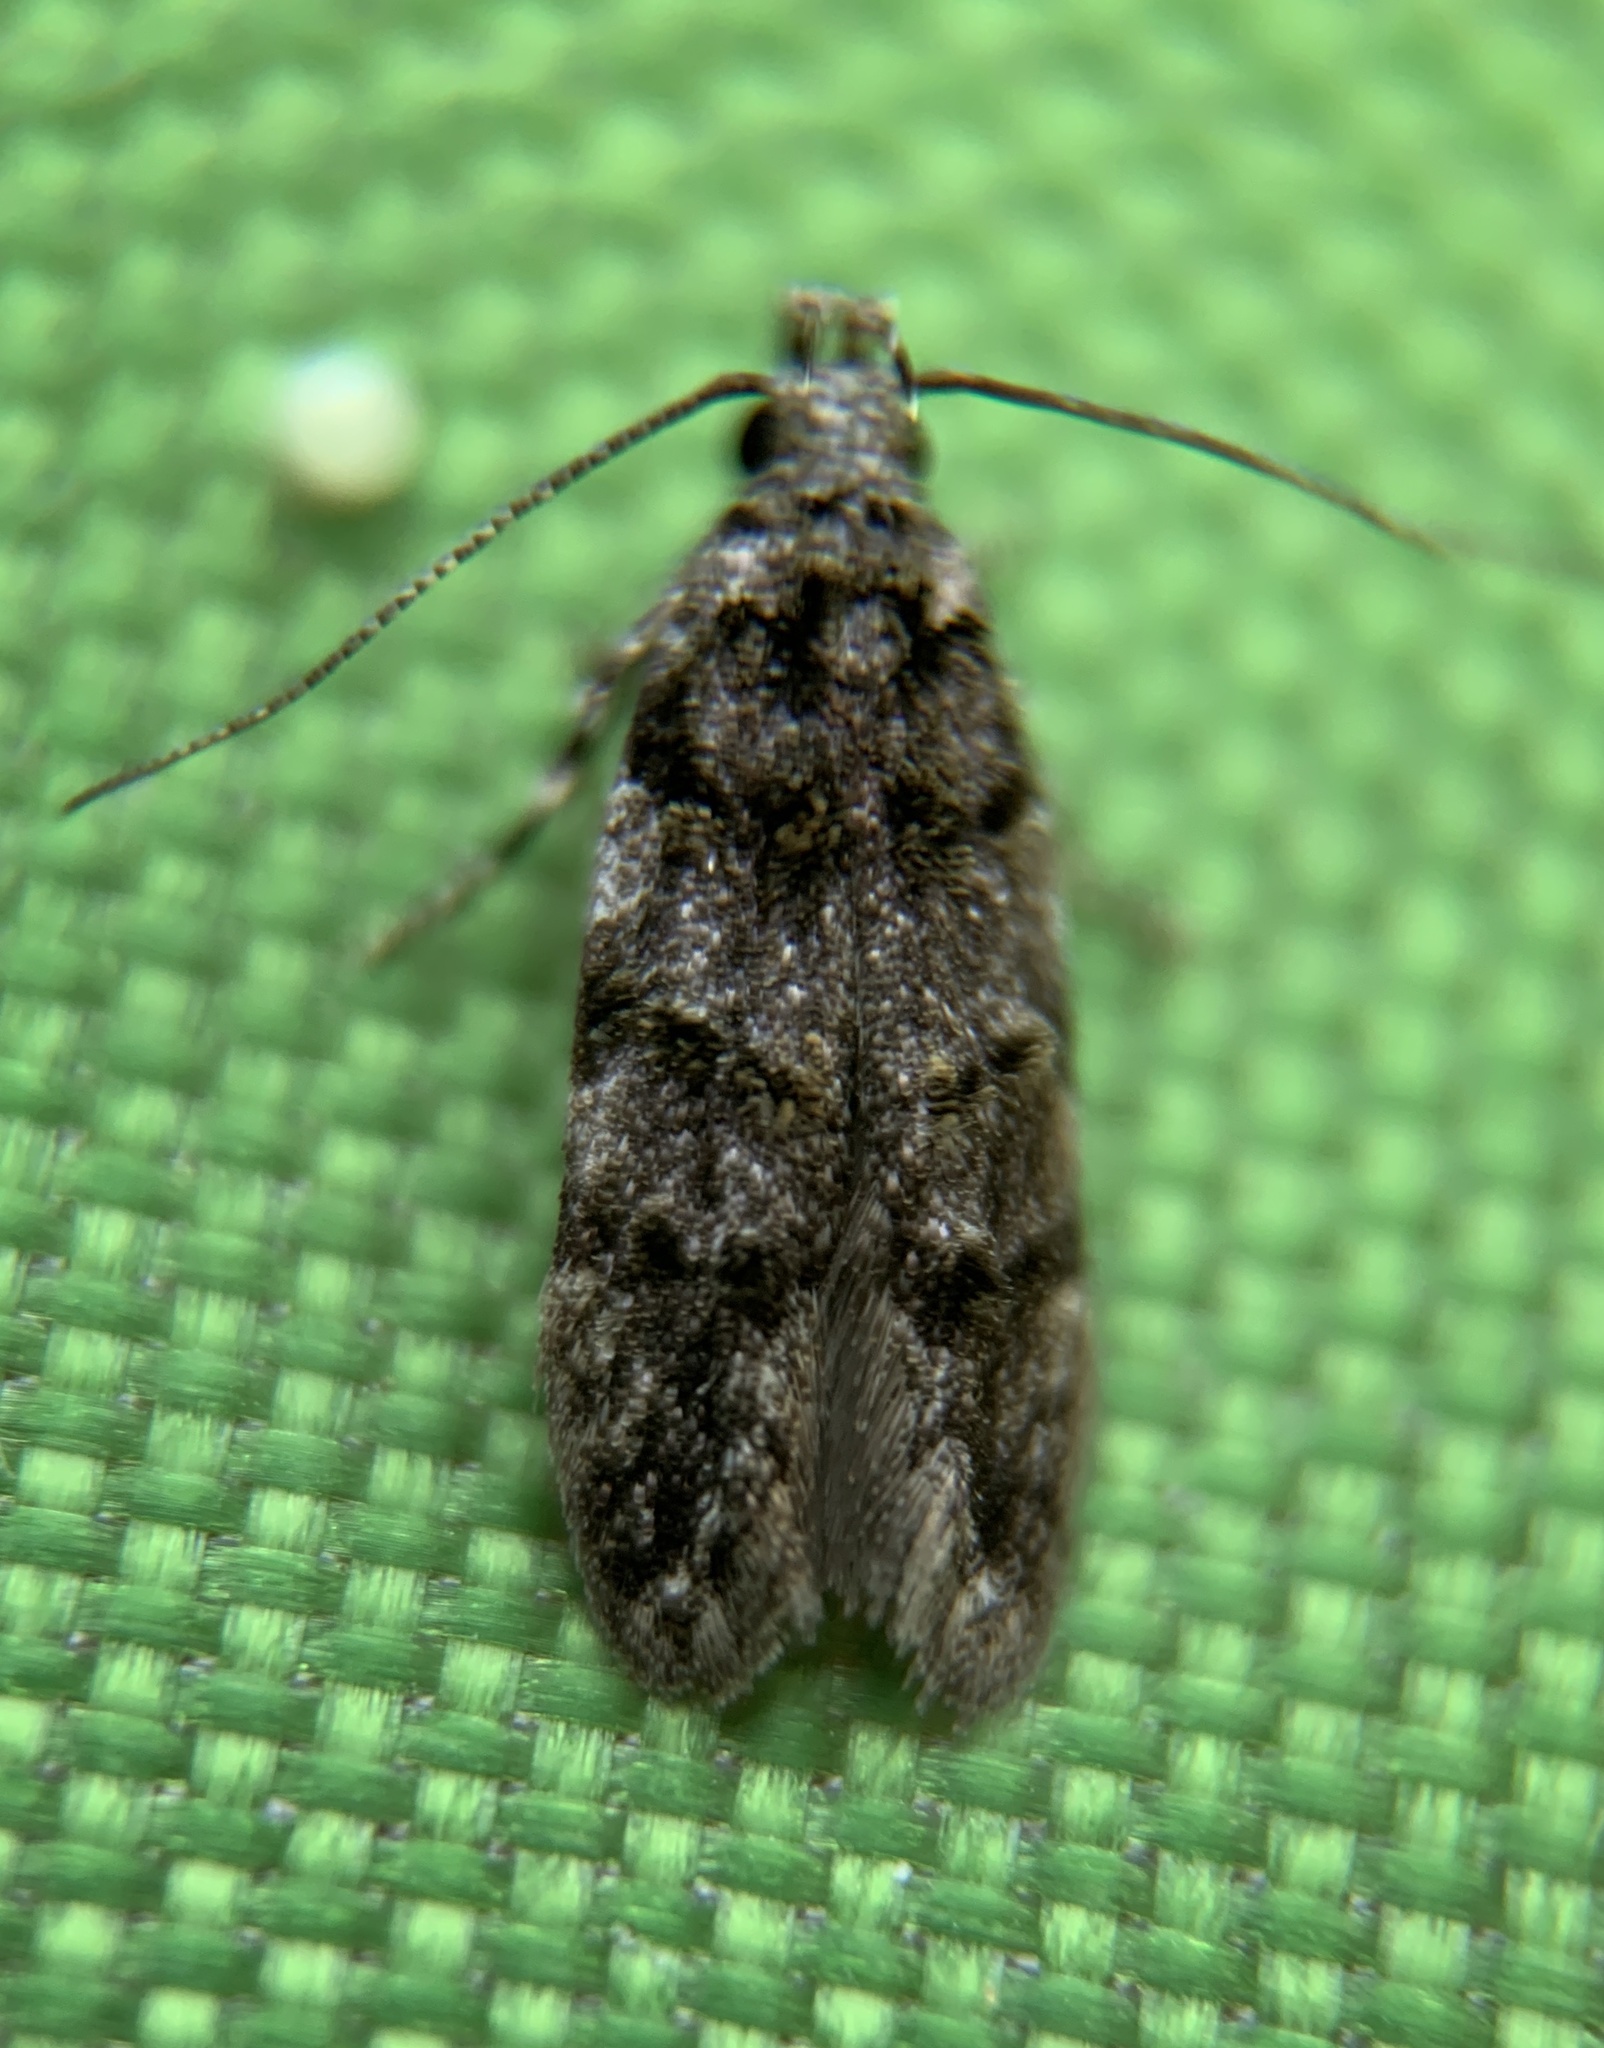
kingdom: Animalia
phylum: Arthropoda
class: Insecta
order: Lepidoptera
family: Gelechiidae
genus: Pubitelphusa
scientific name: Pubitelphusa latifasciella
